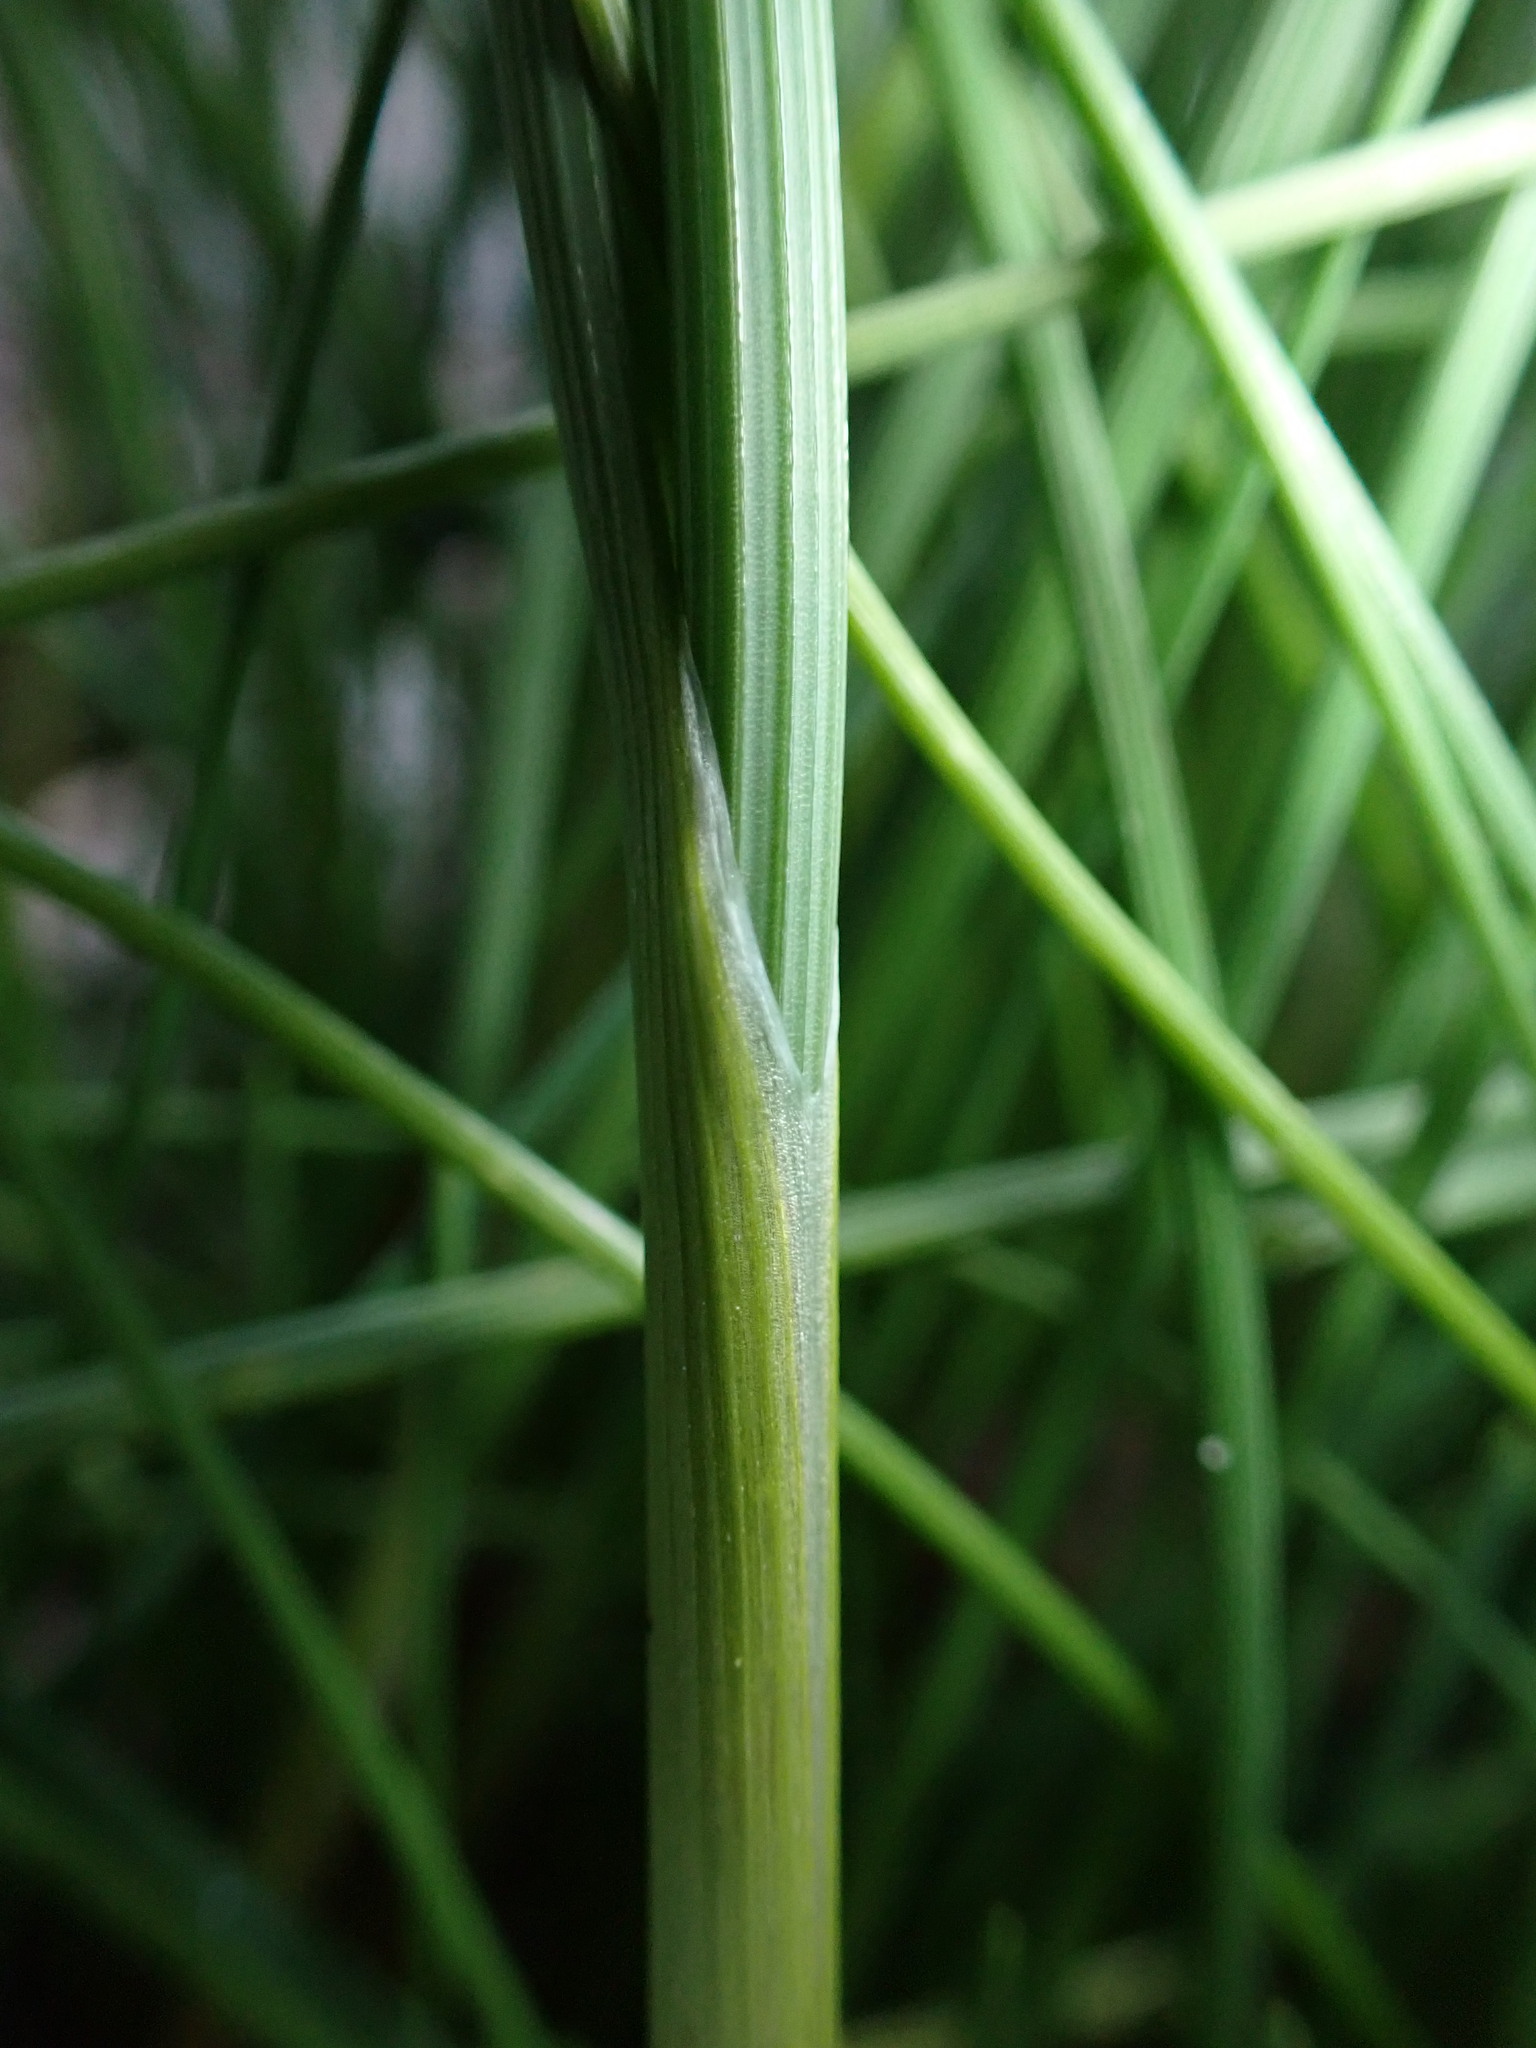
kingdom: Plantae
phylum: Tracheophyta
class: Liliopsida
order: Asparagales
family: Amaryllidaceae
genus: Allium
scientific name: Allium vineale
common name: Crow garlic
